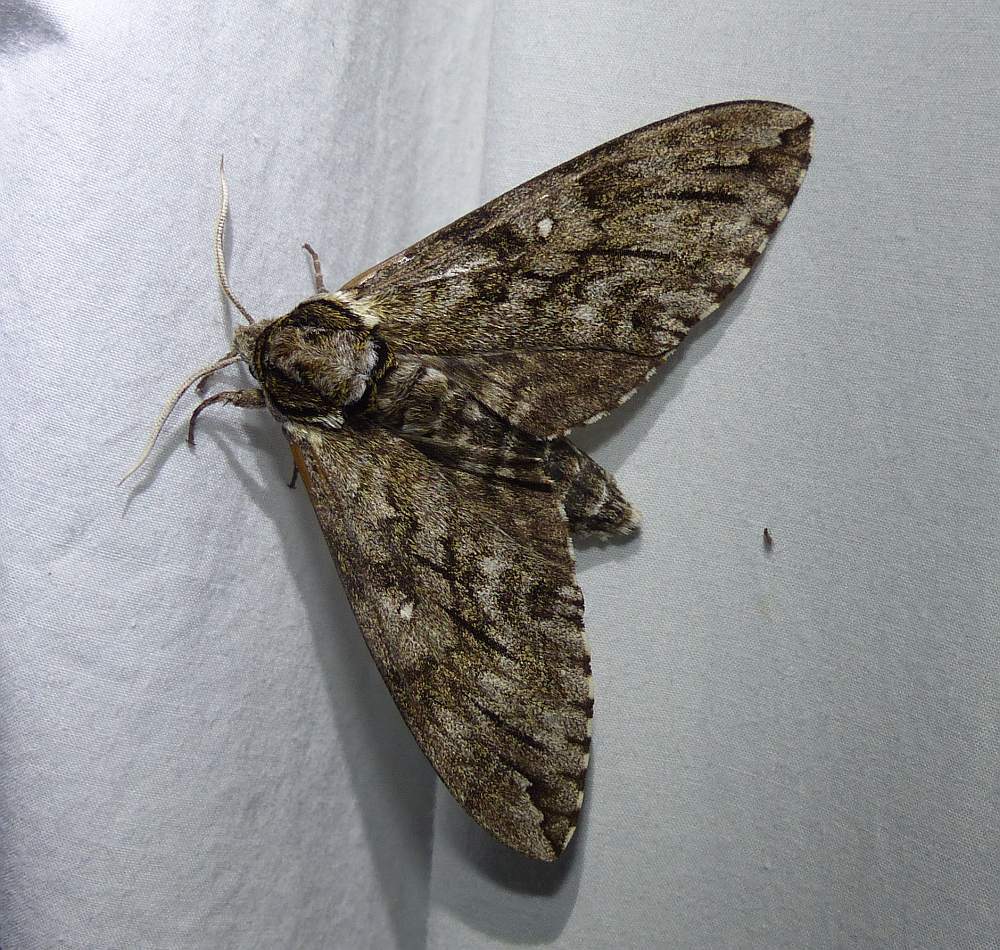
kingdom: Animalia
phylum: Arthropoda
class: Insecta
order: Lepidoptera
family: Sphingidae
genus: Ceratomia
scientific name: Ceratomia undulosa
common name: Waved sphinx
